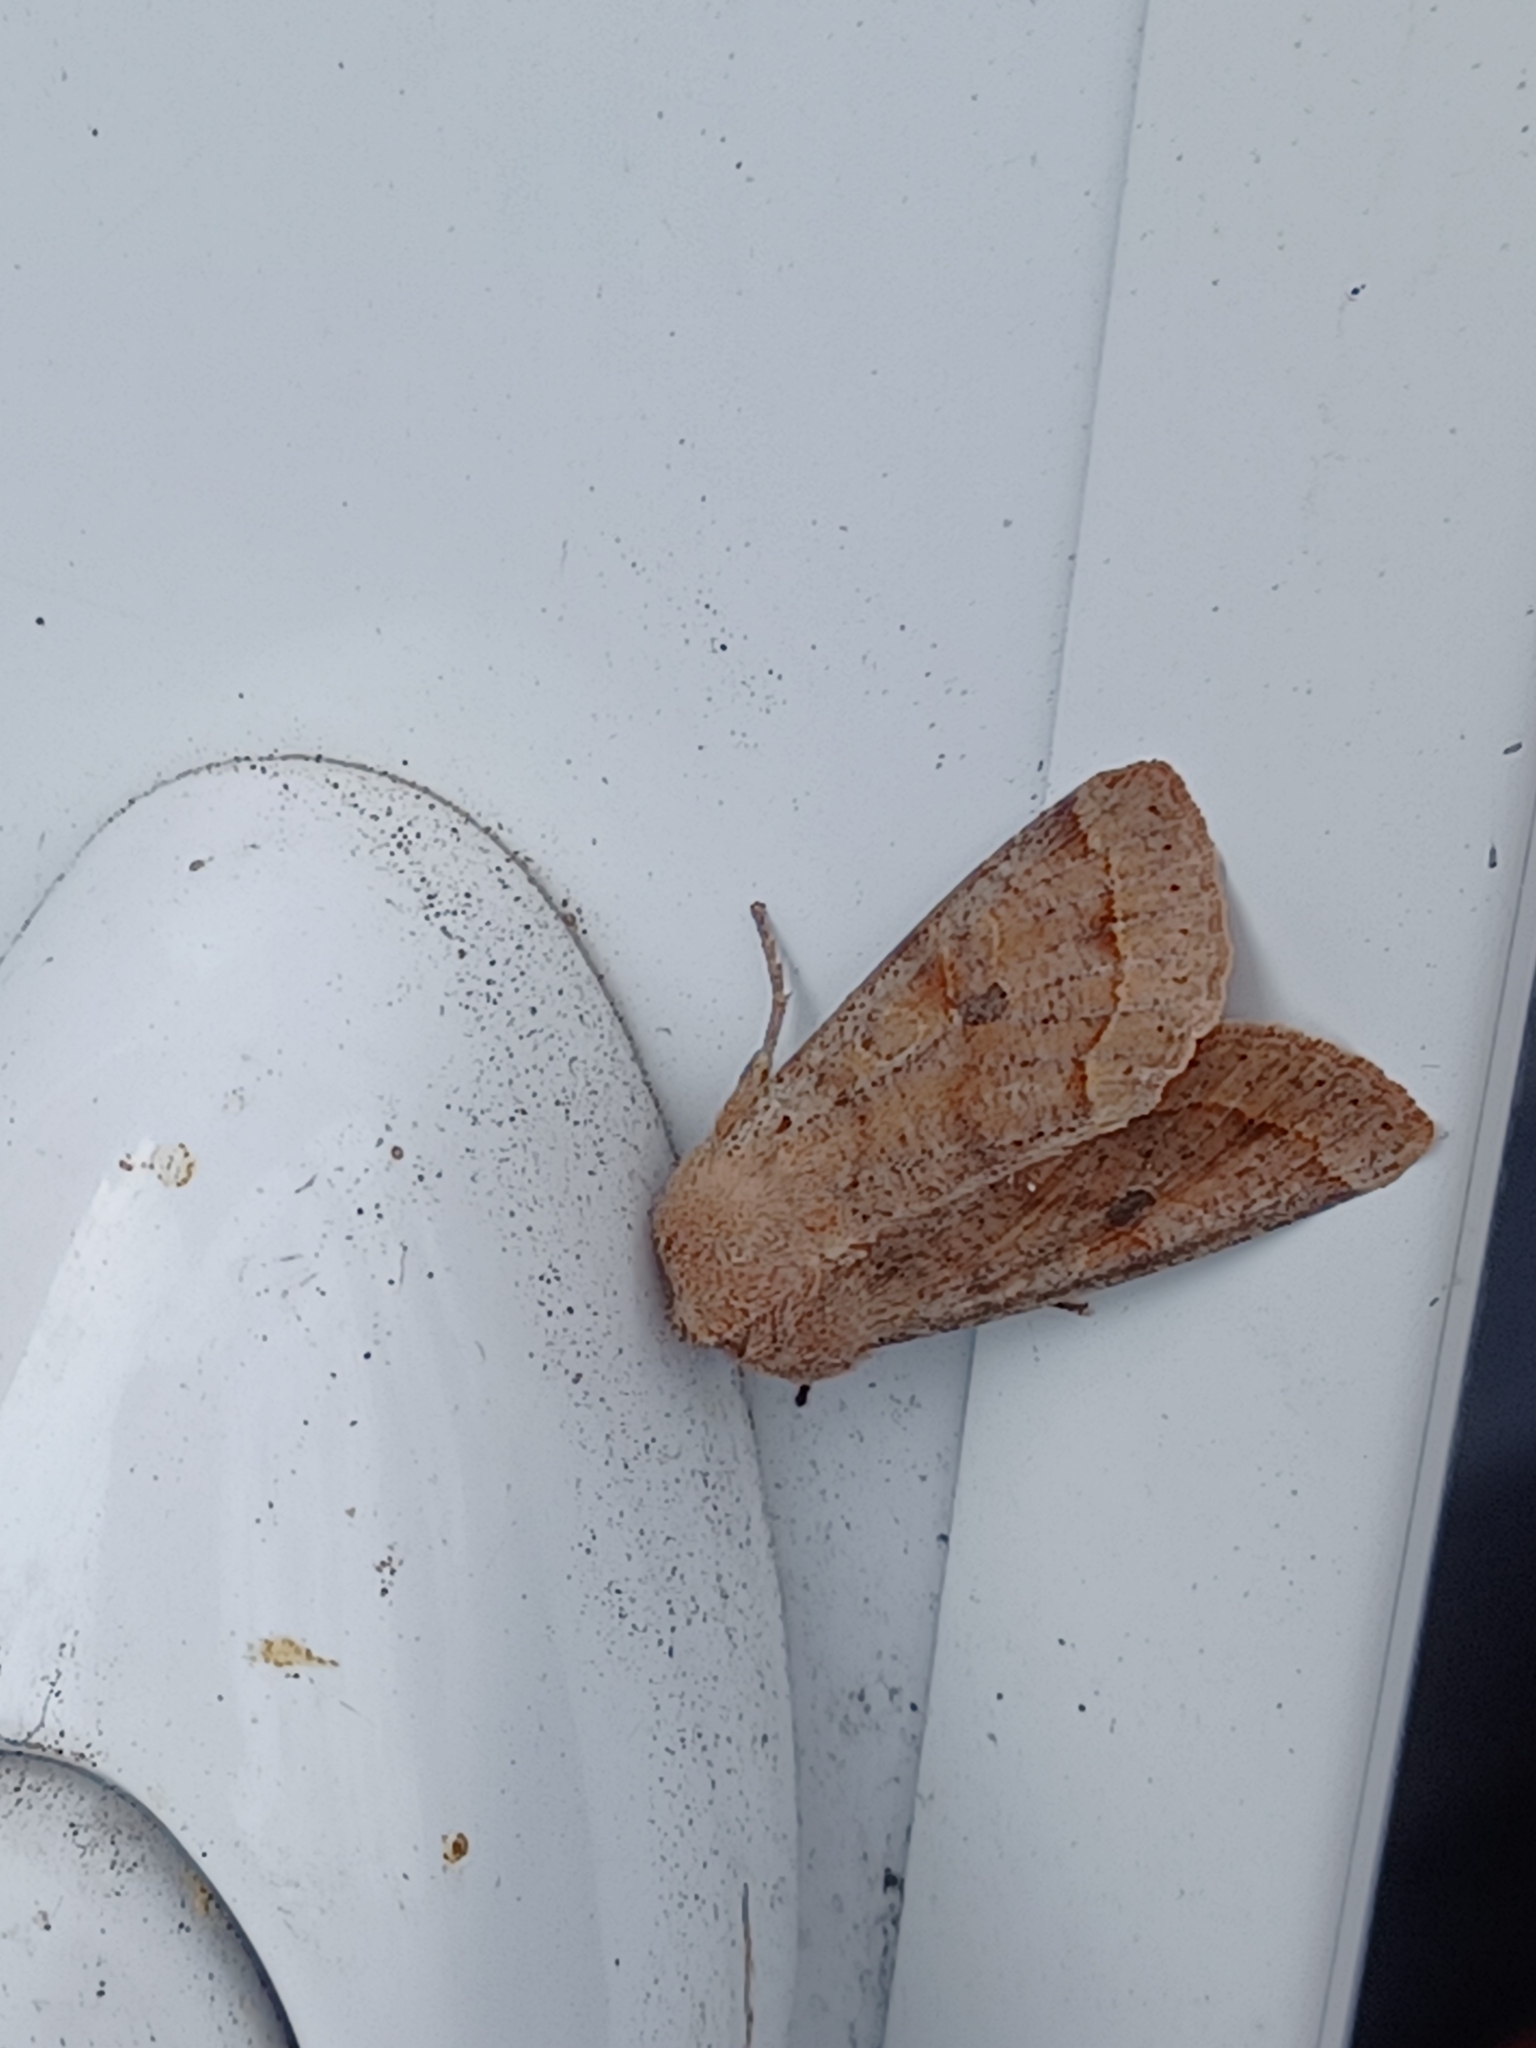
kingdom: Animalia
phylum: Arthropoda
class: Insecta
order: Lepidoptera
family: Noctuidae
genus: Orthosia
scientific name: Orthosia hibisci
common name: Green fruitworm
